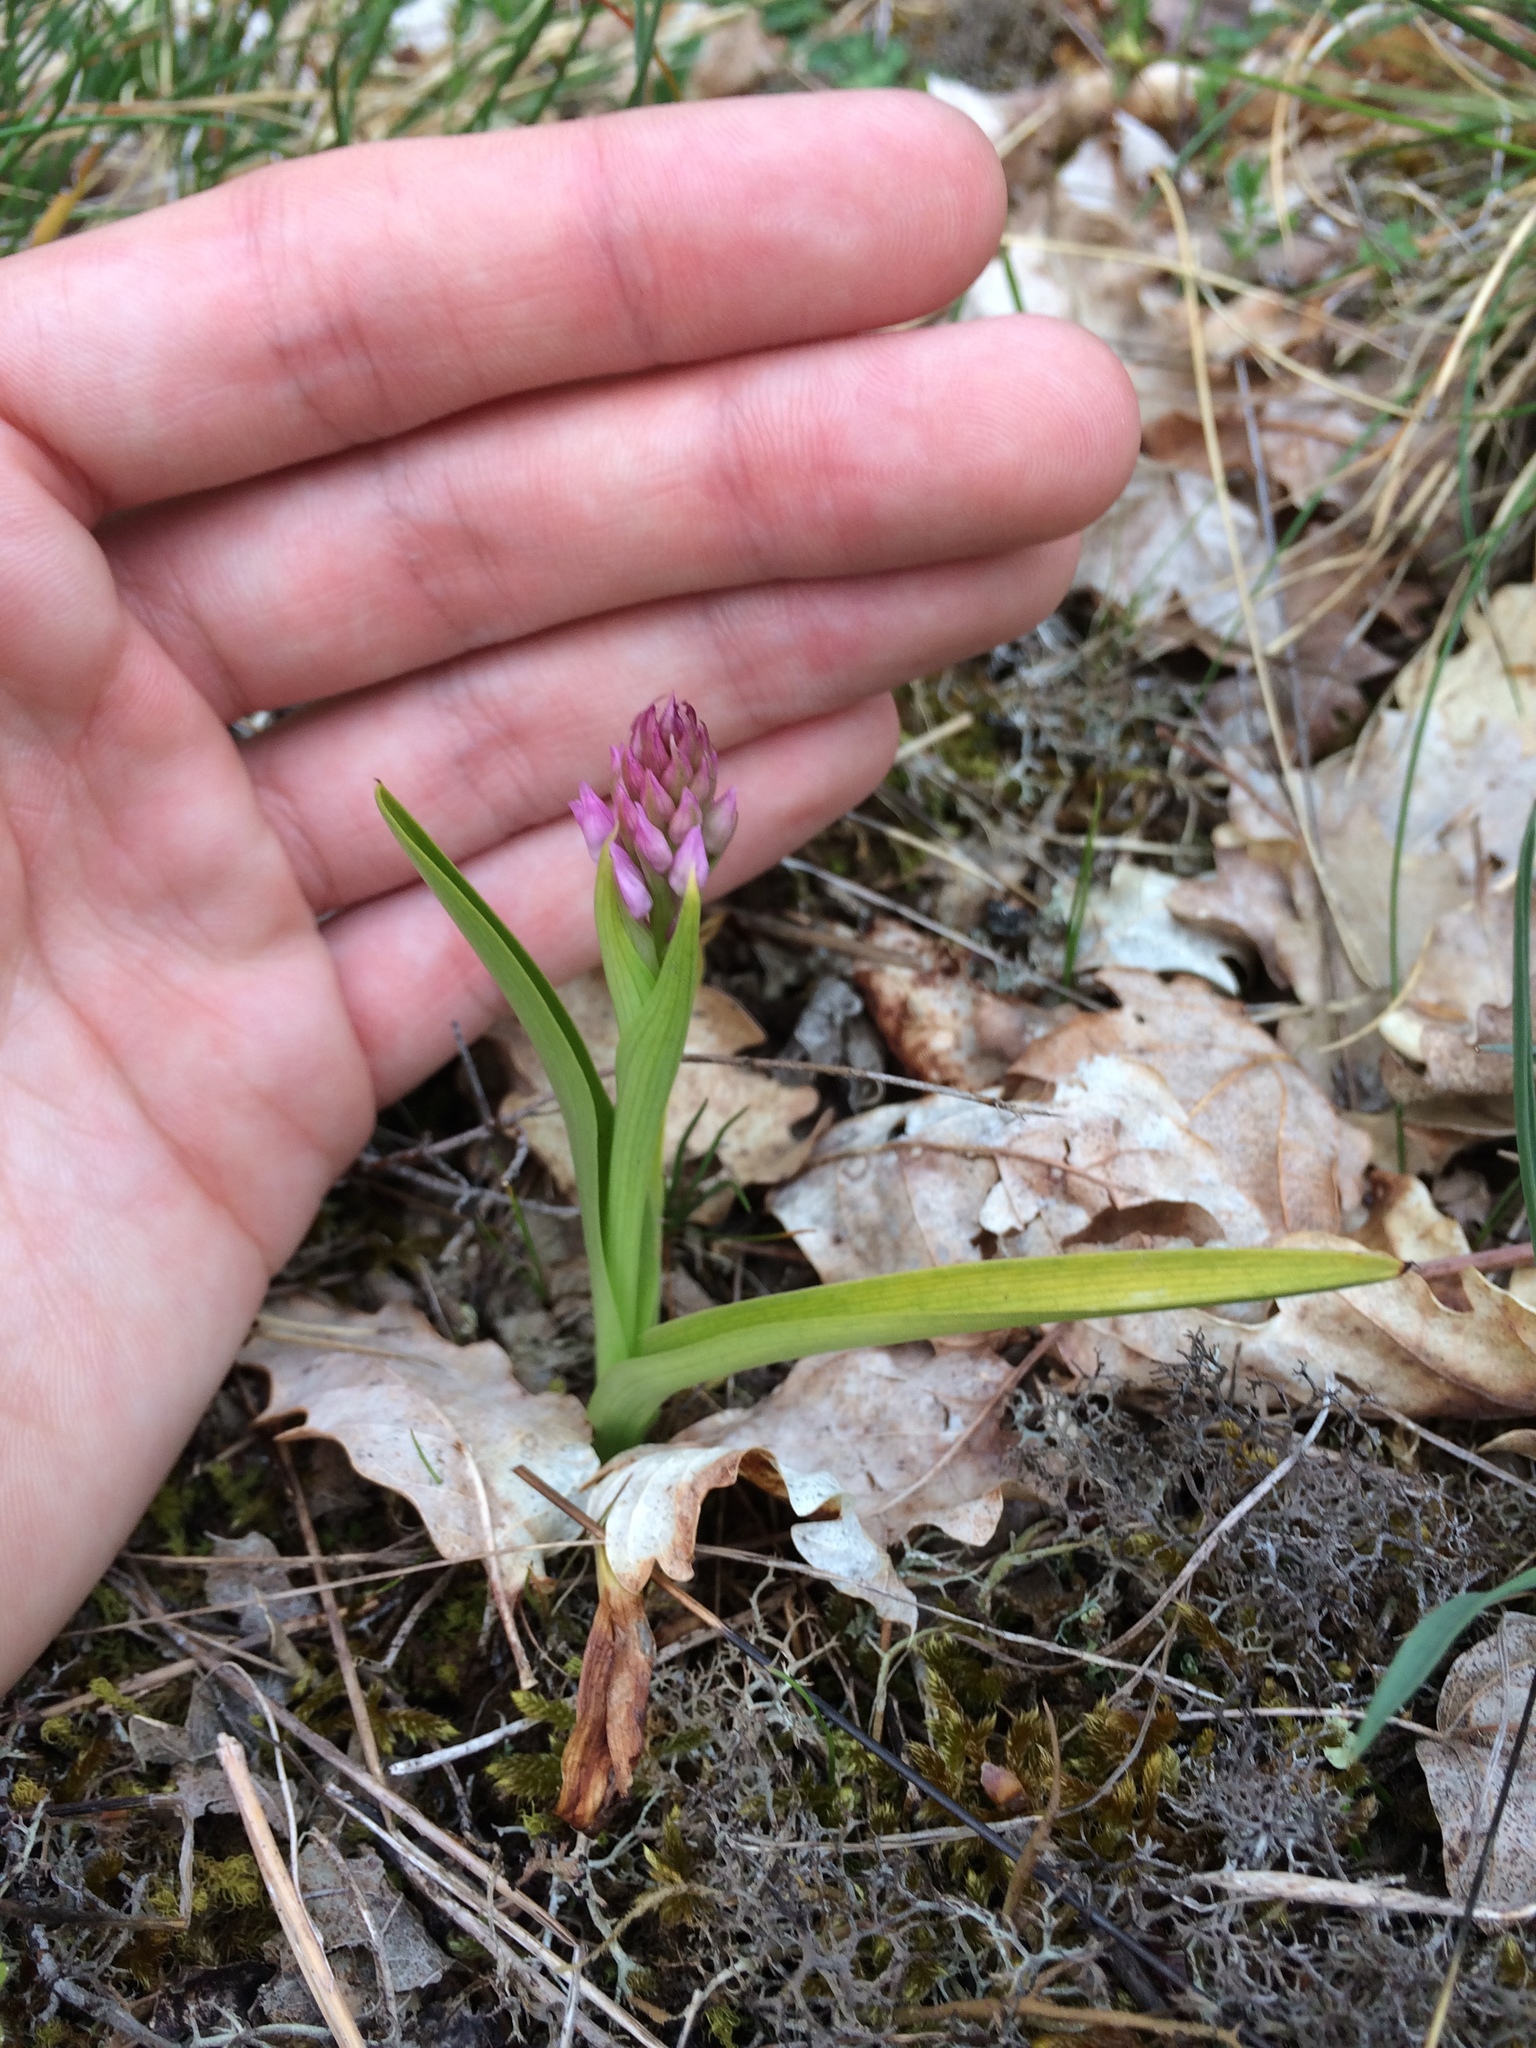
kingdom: Plantae
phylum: Tracheophyta
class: Liliopsida
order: Asparagales
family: Orchidaceae
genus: Anacamptis
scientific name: Anacamptis pyramidalis
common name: Pyramidal orchid
